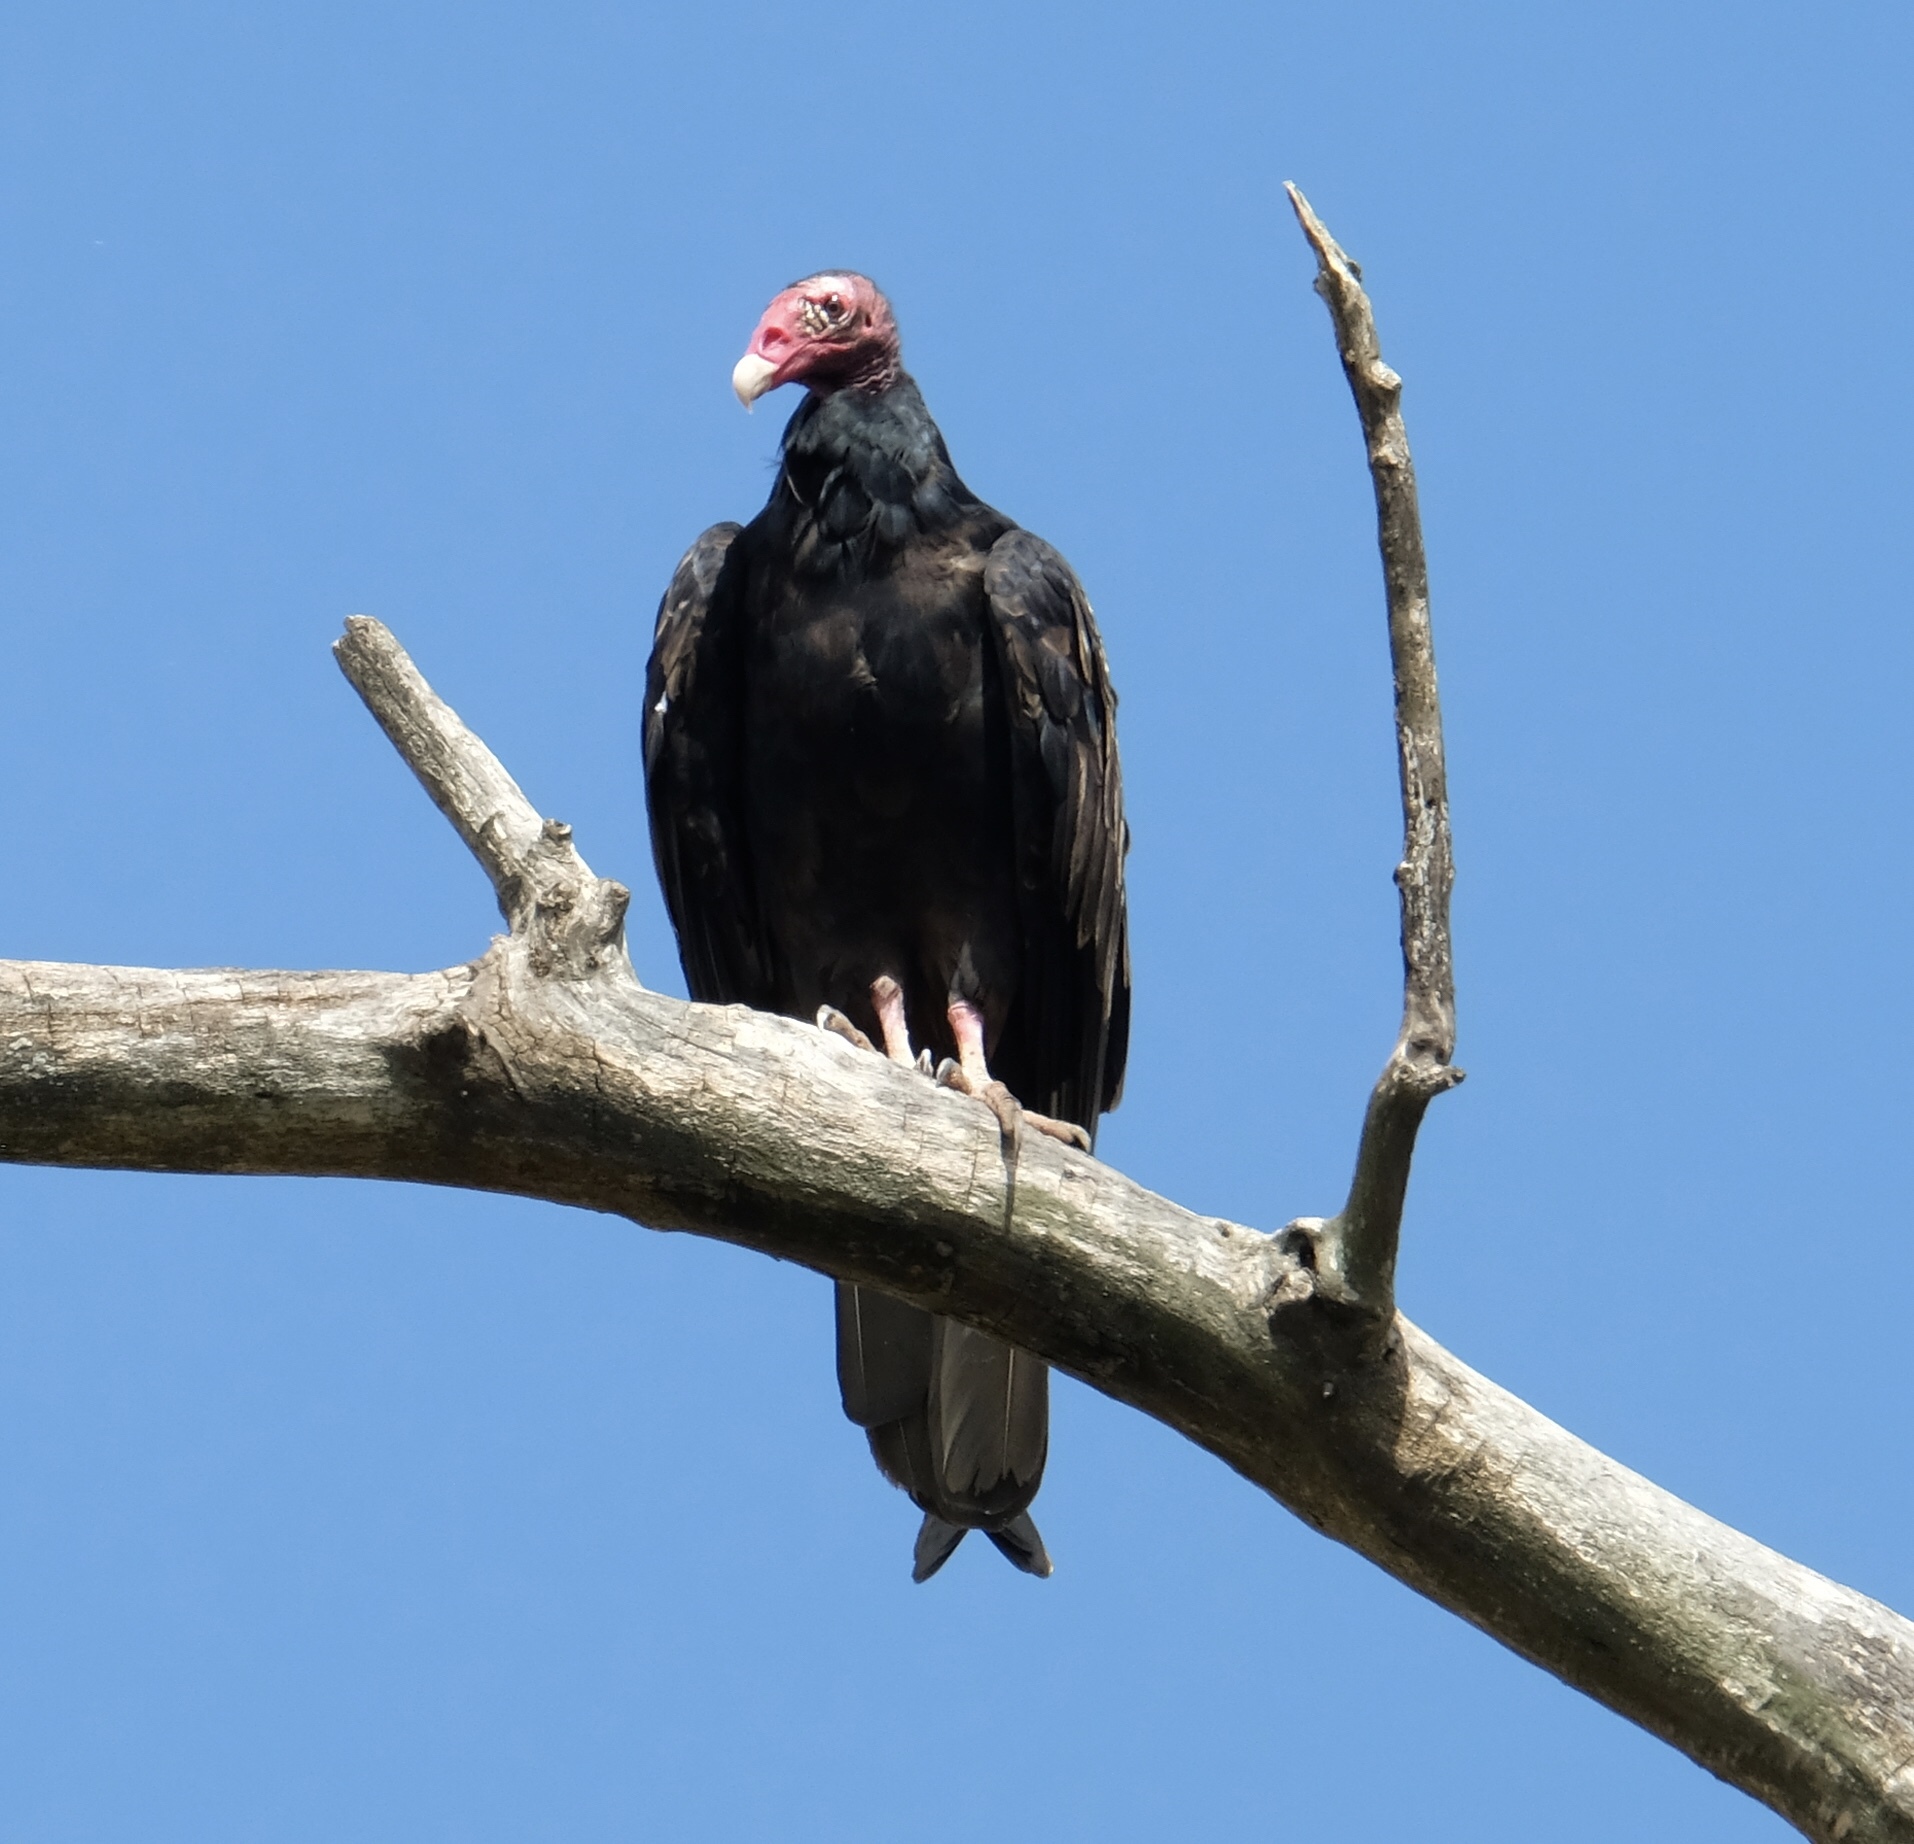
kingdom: Animalia
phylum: Chordata
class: Aves
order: Accipitriformes
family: Cathartidae
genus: Cathartes
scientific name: Cathartes aura
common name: Turkey vulture
